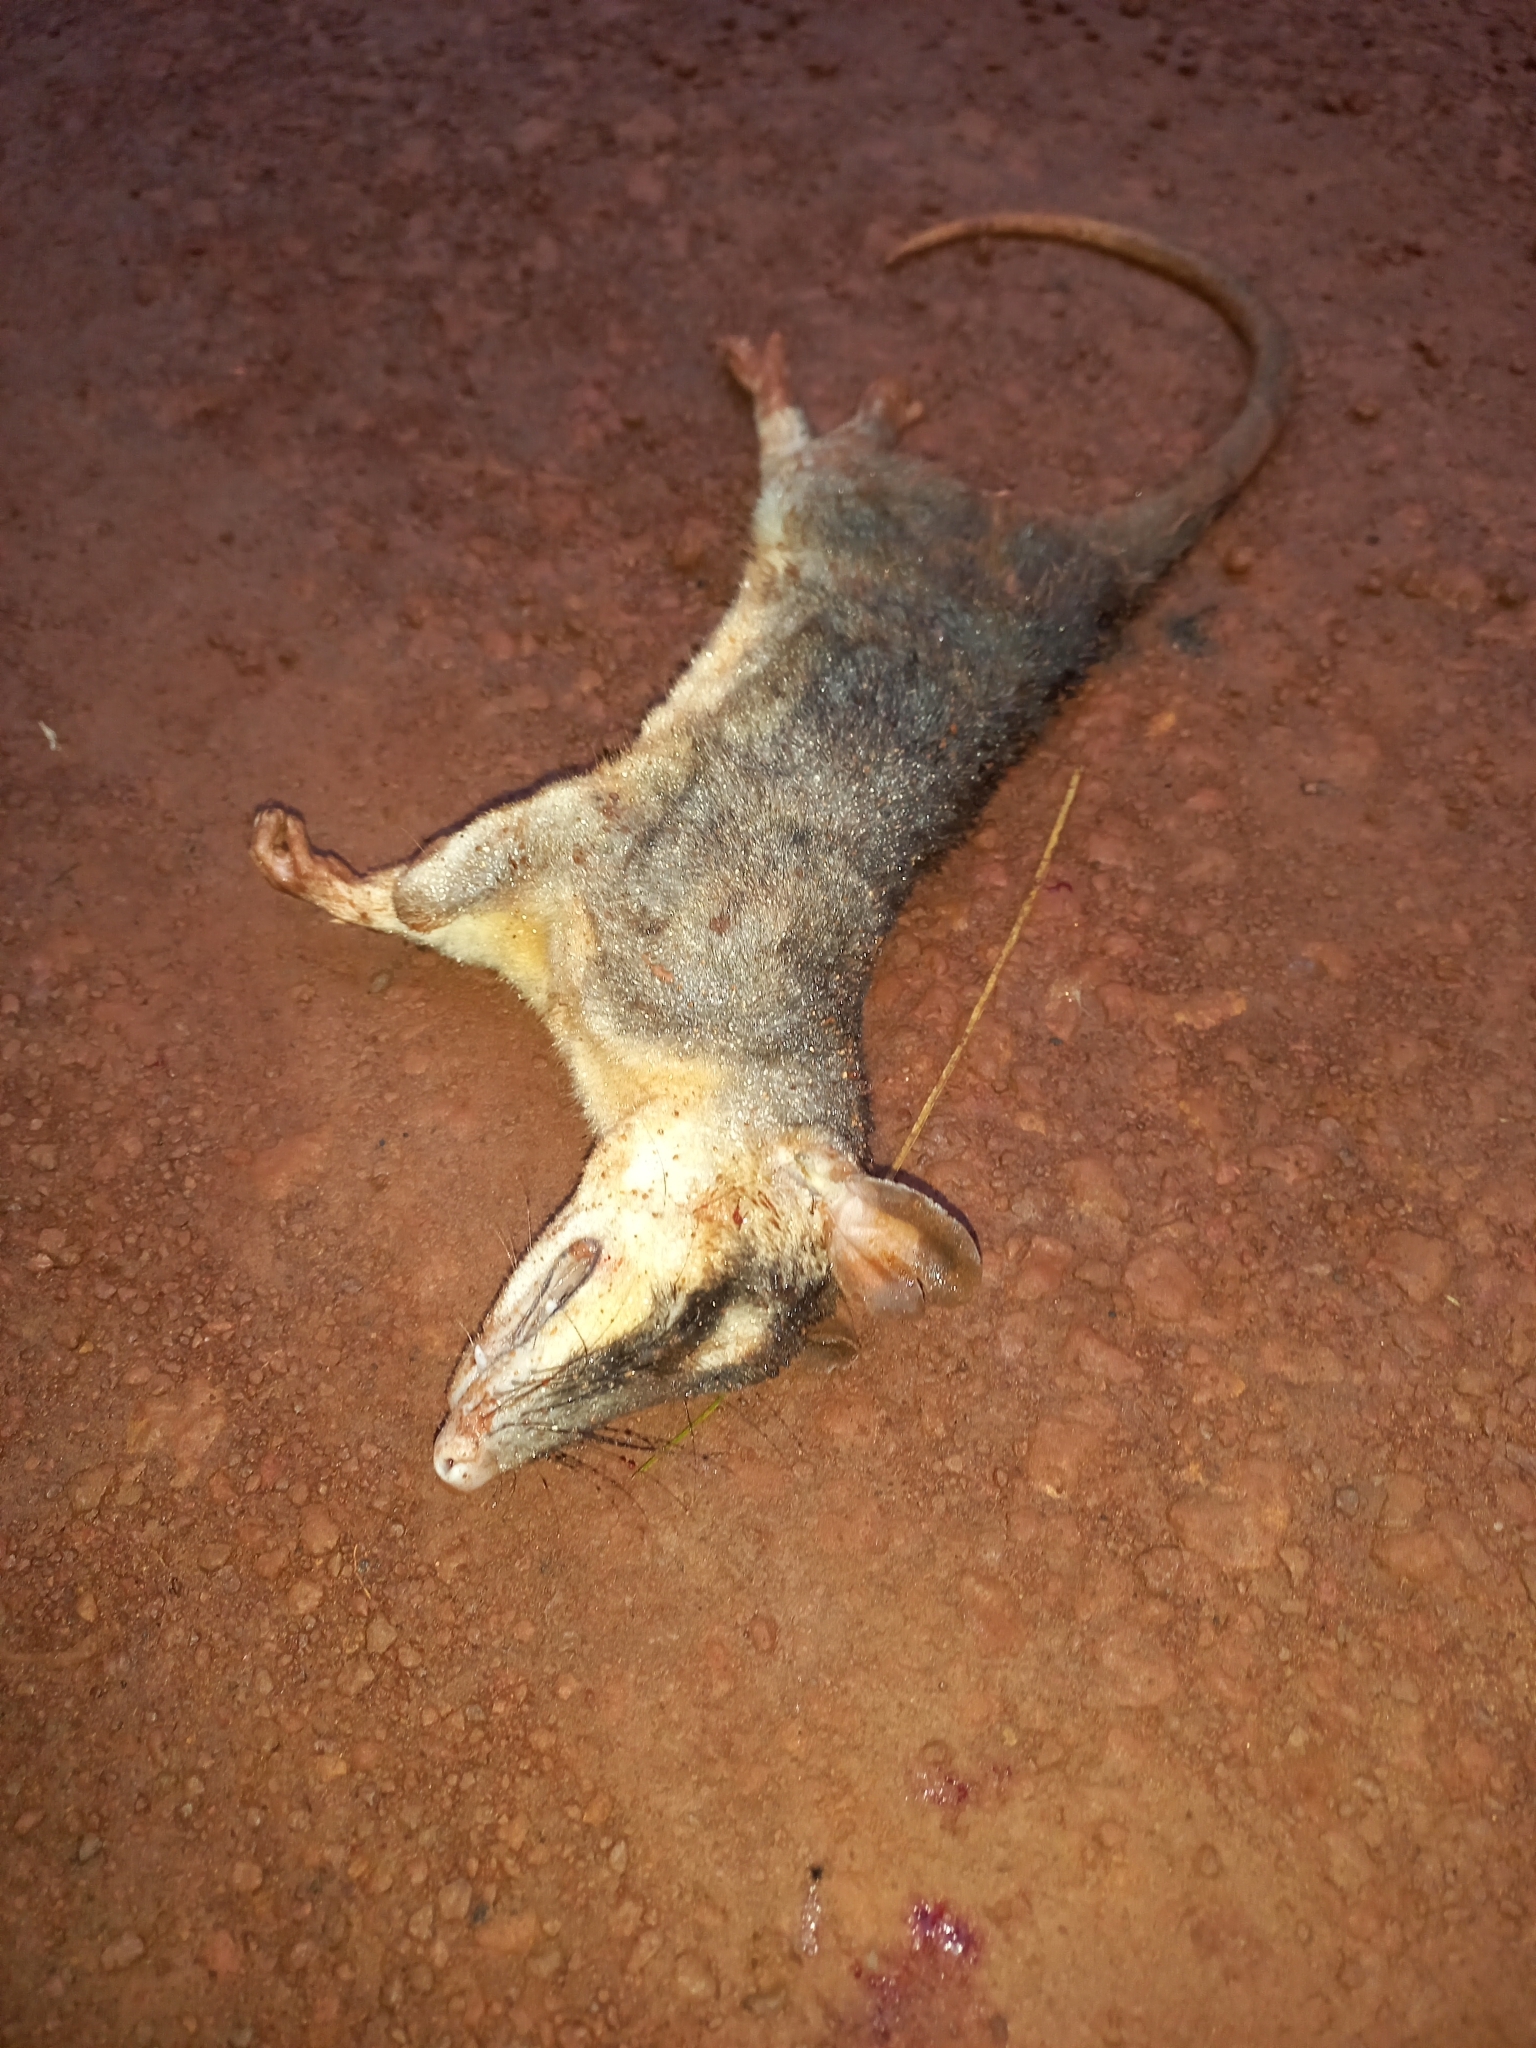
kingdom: Animalia
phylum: Chordata
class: Mammalia
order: Didelphimorphia
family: Didelphidae
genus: Philander
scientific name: Philander
